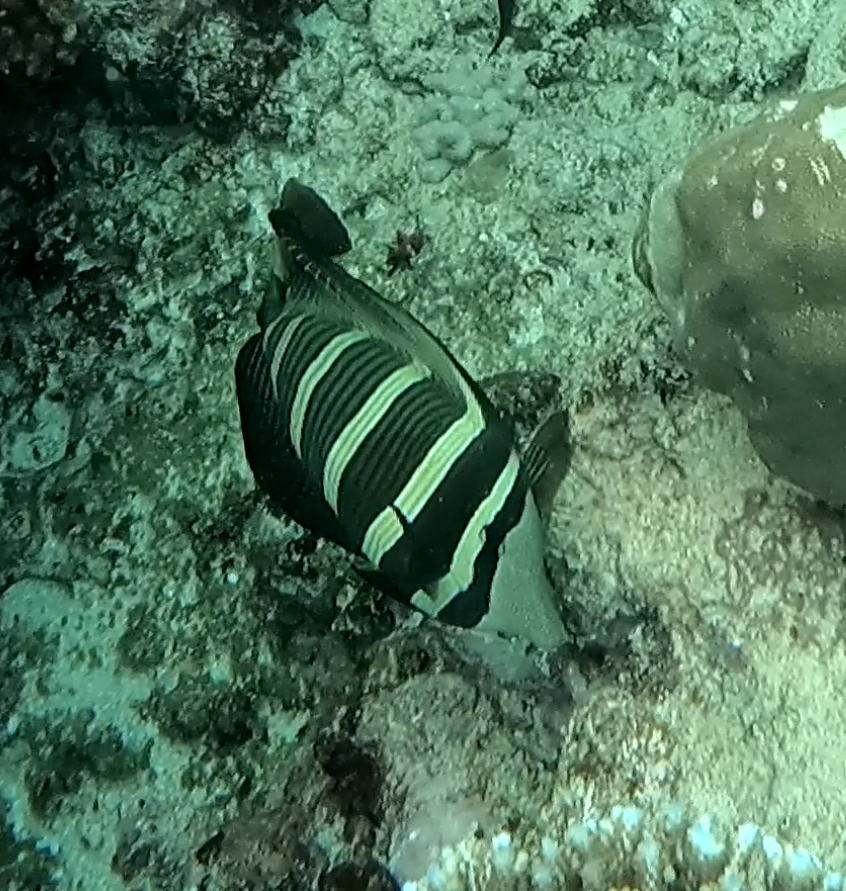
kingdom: Animalia
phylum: Chordata
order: Perciformes
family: Acanthuridae
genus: Zebrasoma
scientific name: Zebrasoma veliferum
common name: Sailfin surgeonfish
